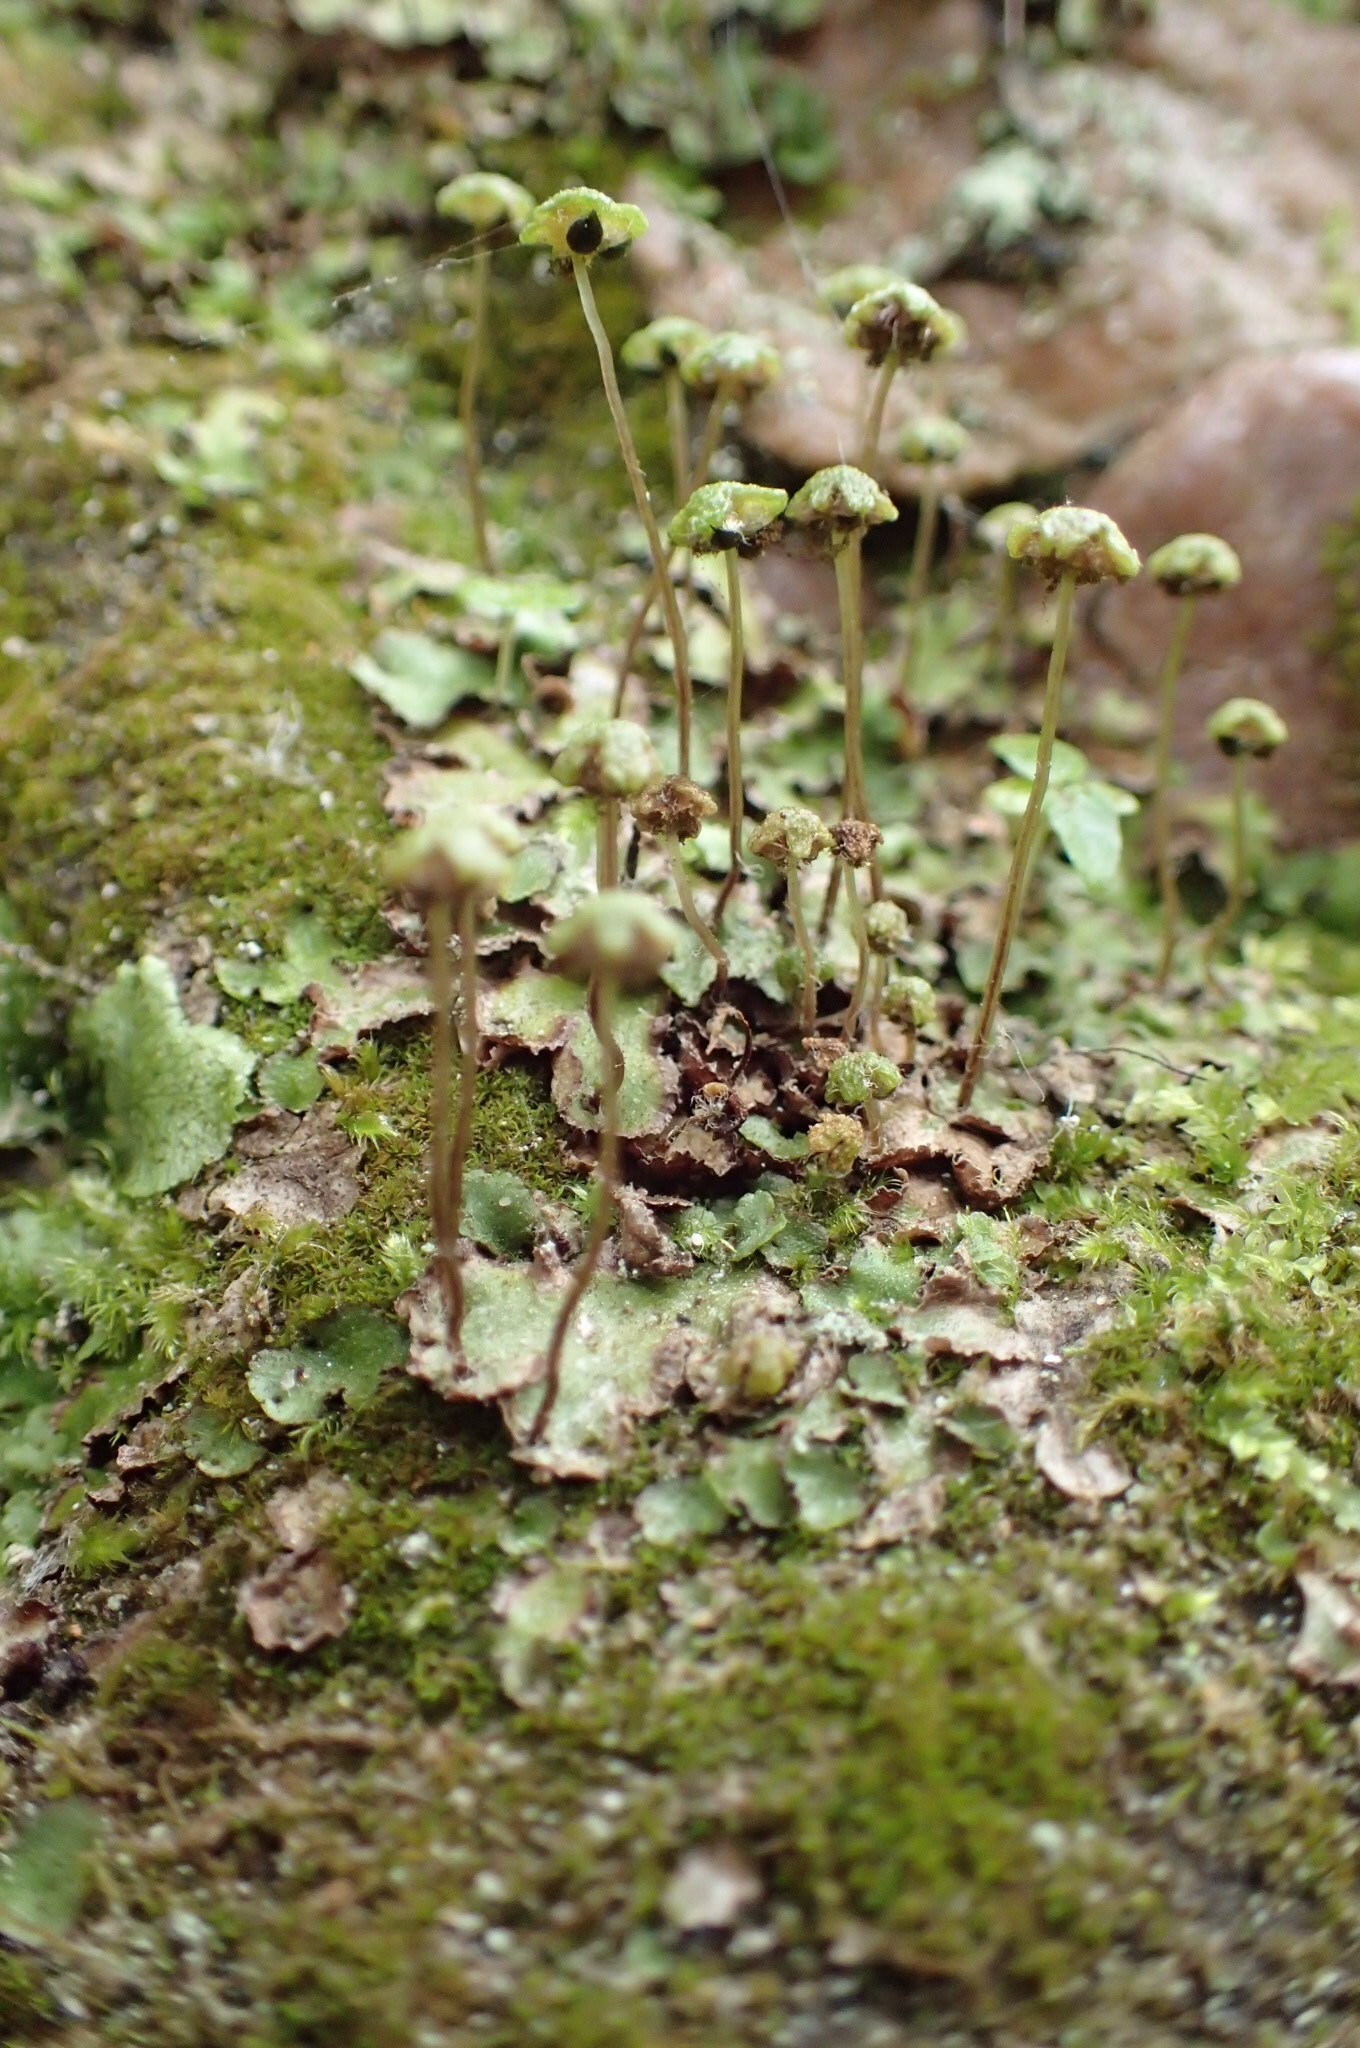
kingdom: Plantae
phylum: Marchantiophyta
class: Marchantiopsida
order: Marchantiales
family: Aytoniaceae
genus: Reboulia
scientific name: Reboulia hemisphaerica
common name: Purple-margined liverwort
